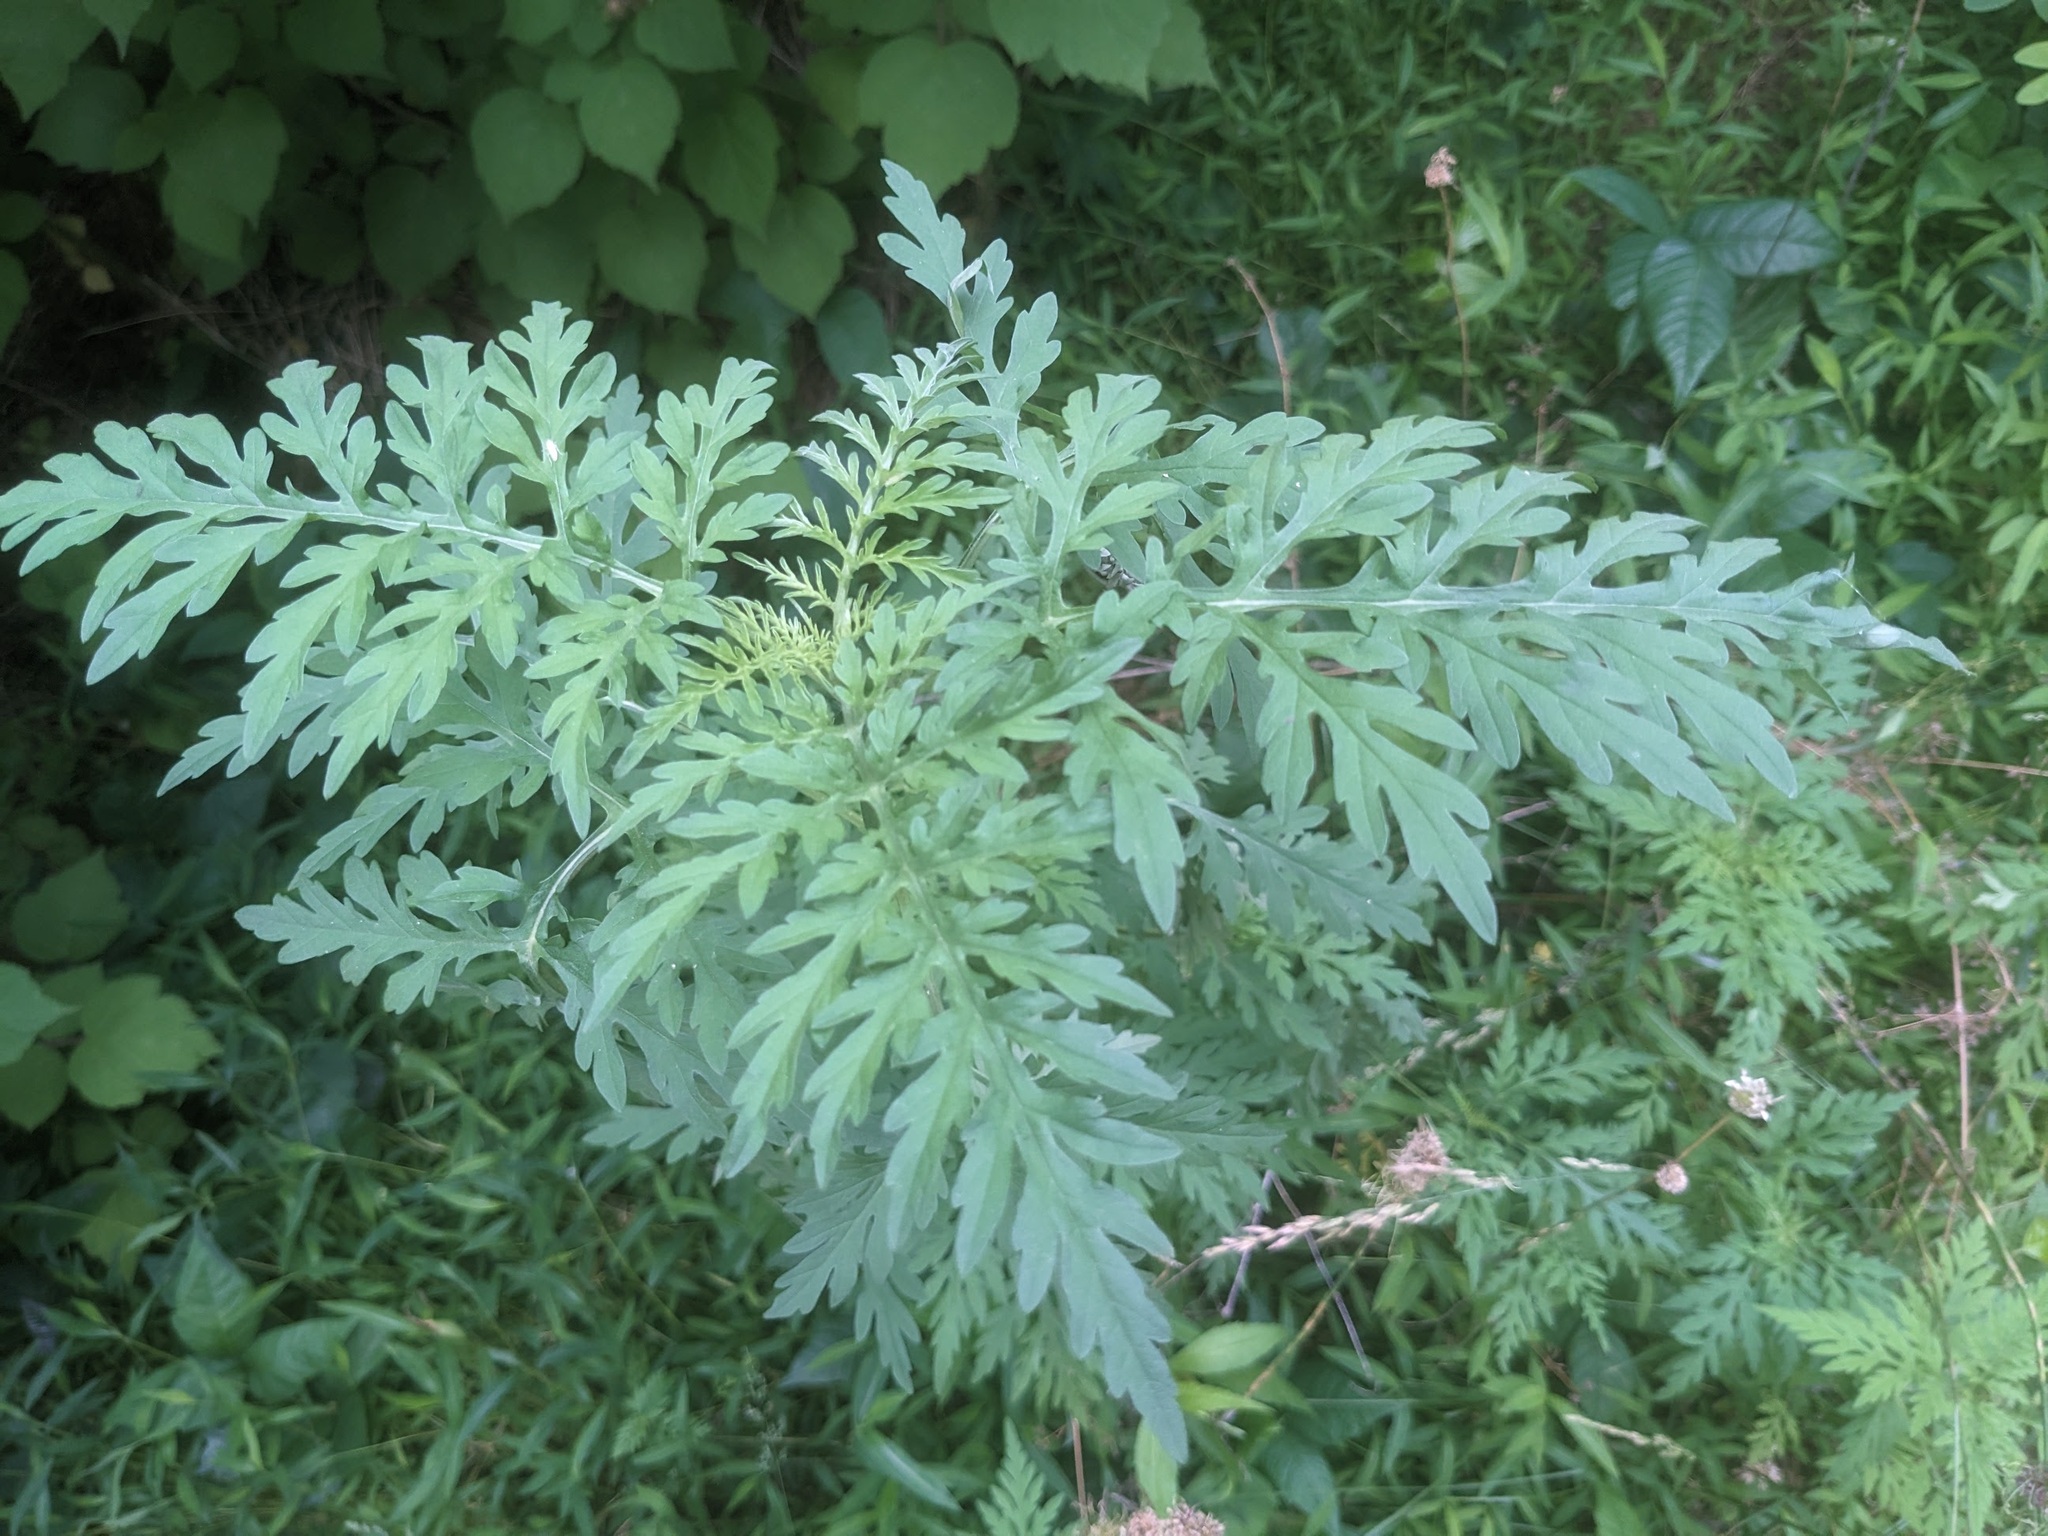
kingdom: Plantae
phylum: Tracheophyta
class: Magnoliopsida
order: Asterales
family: Asteraceae
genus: Ambrosia
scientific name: Ambrosia artemisiifolia
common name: Annual ragweed
